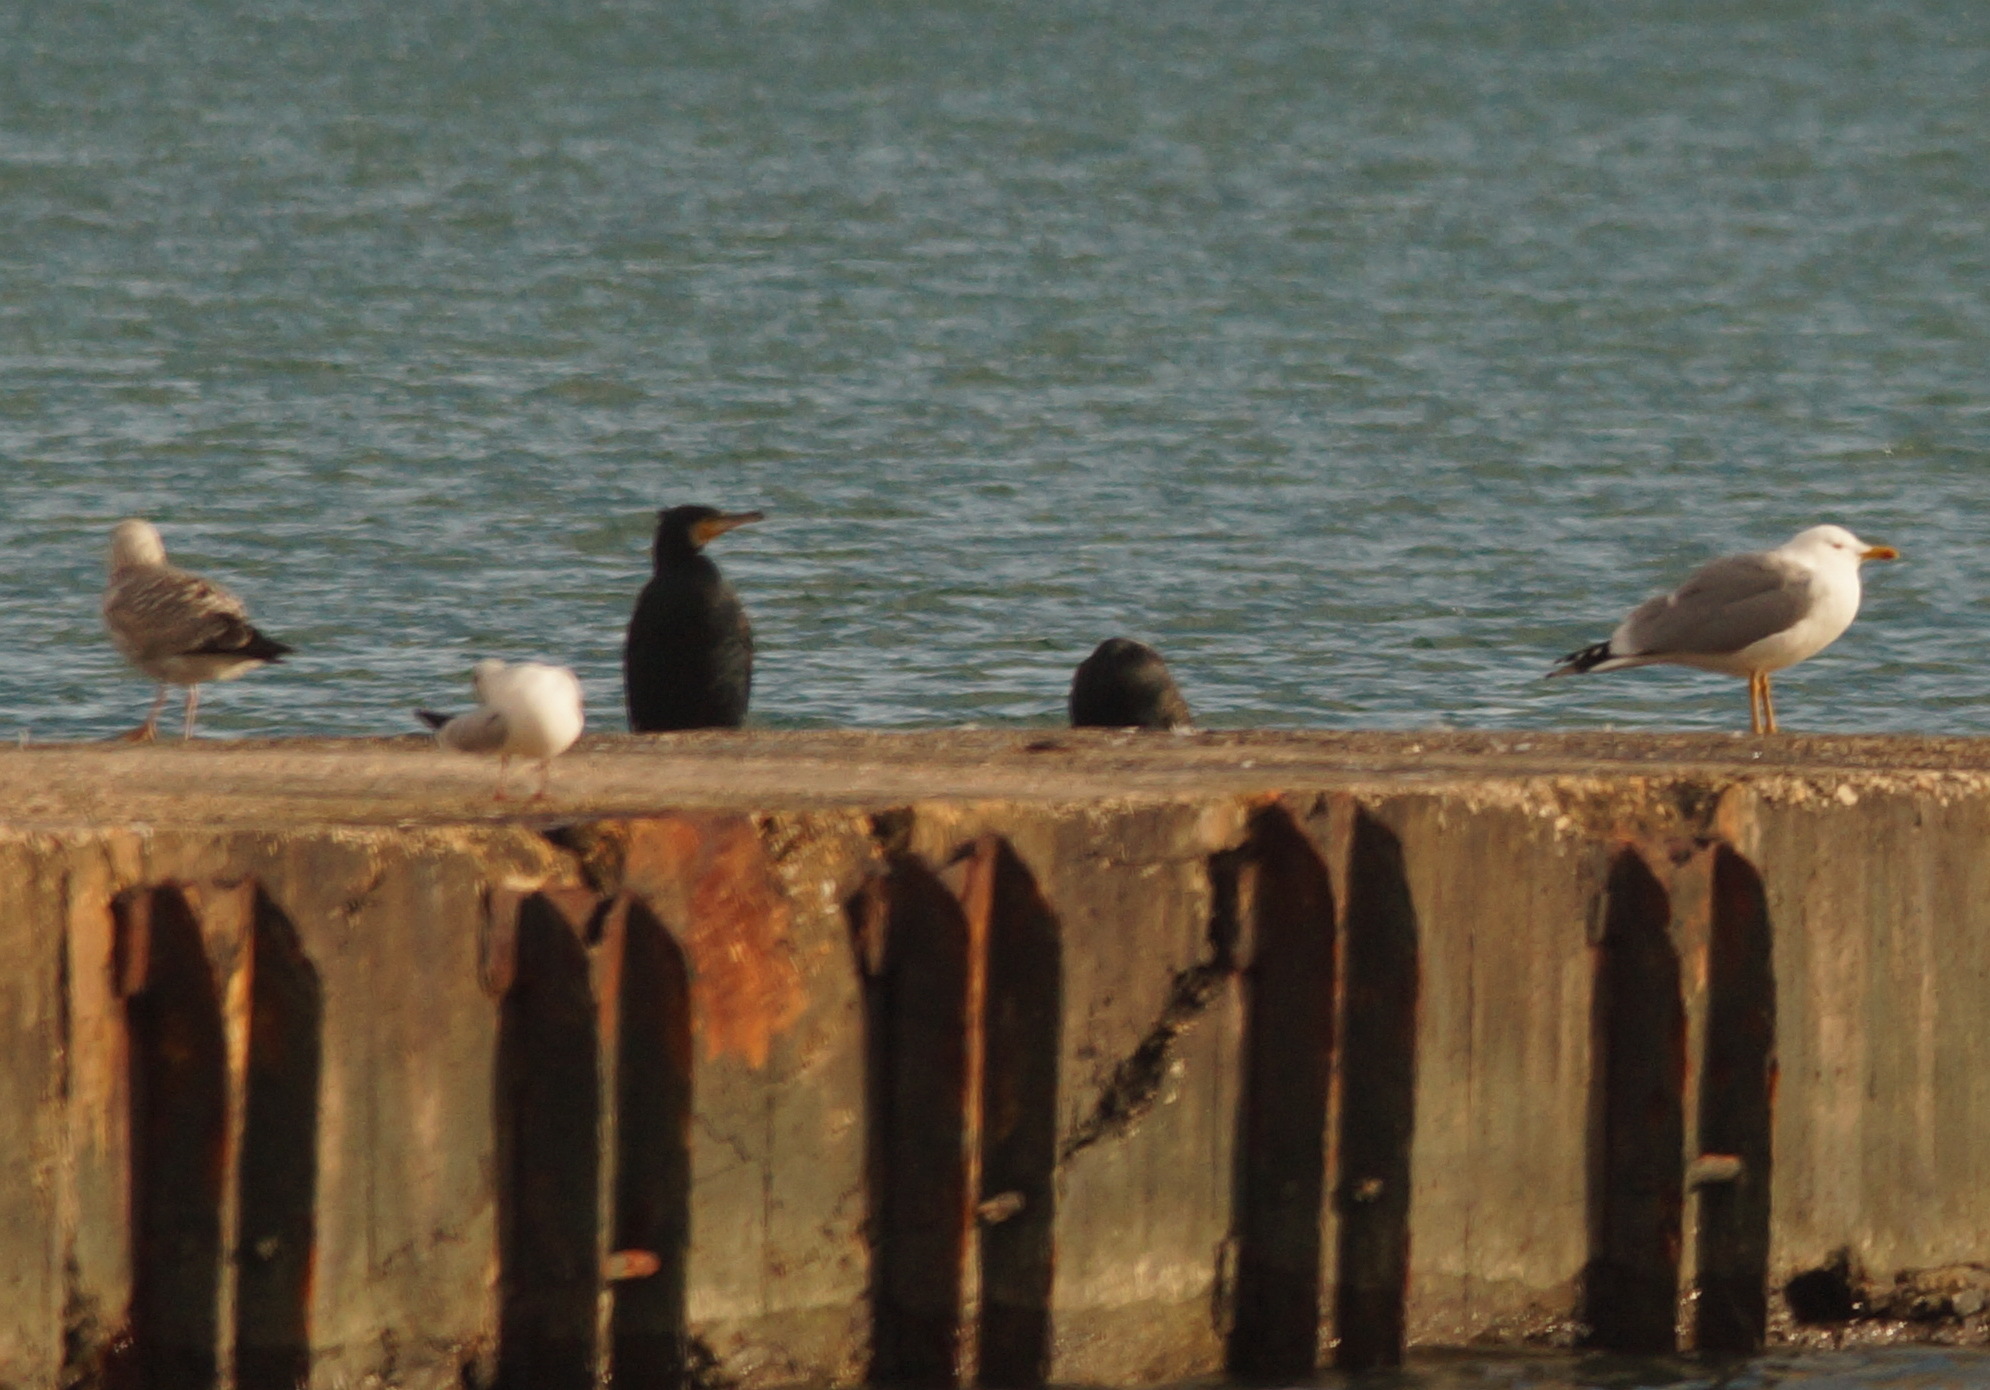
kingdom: Animalia
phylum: Chordata
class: Aves
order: Suliformes
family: Phalacrocoracidae
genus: Phalacrocorax
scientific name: Phalacrocorax carbo
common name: Great cormorant
